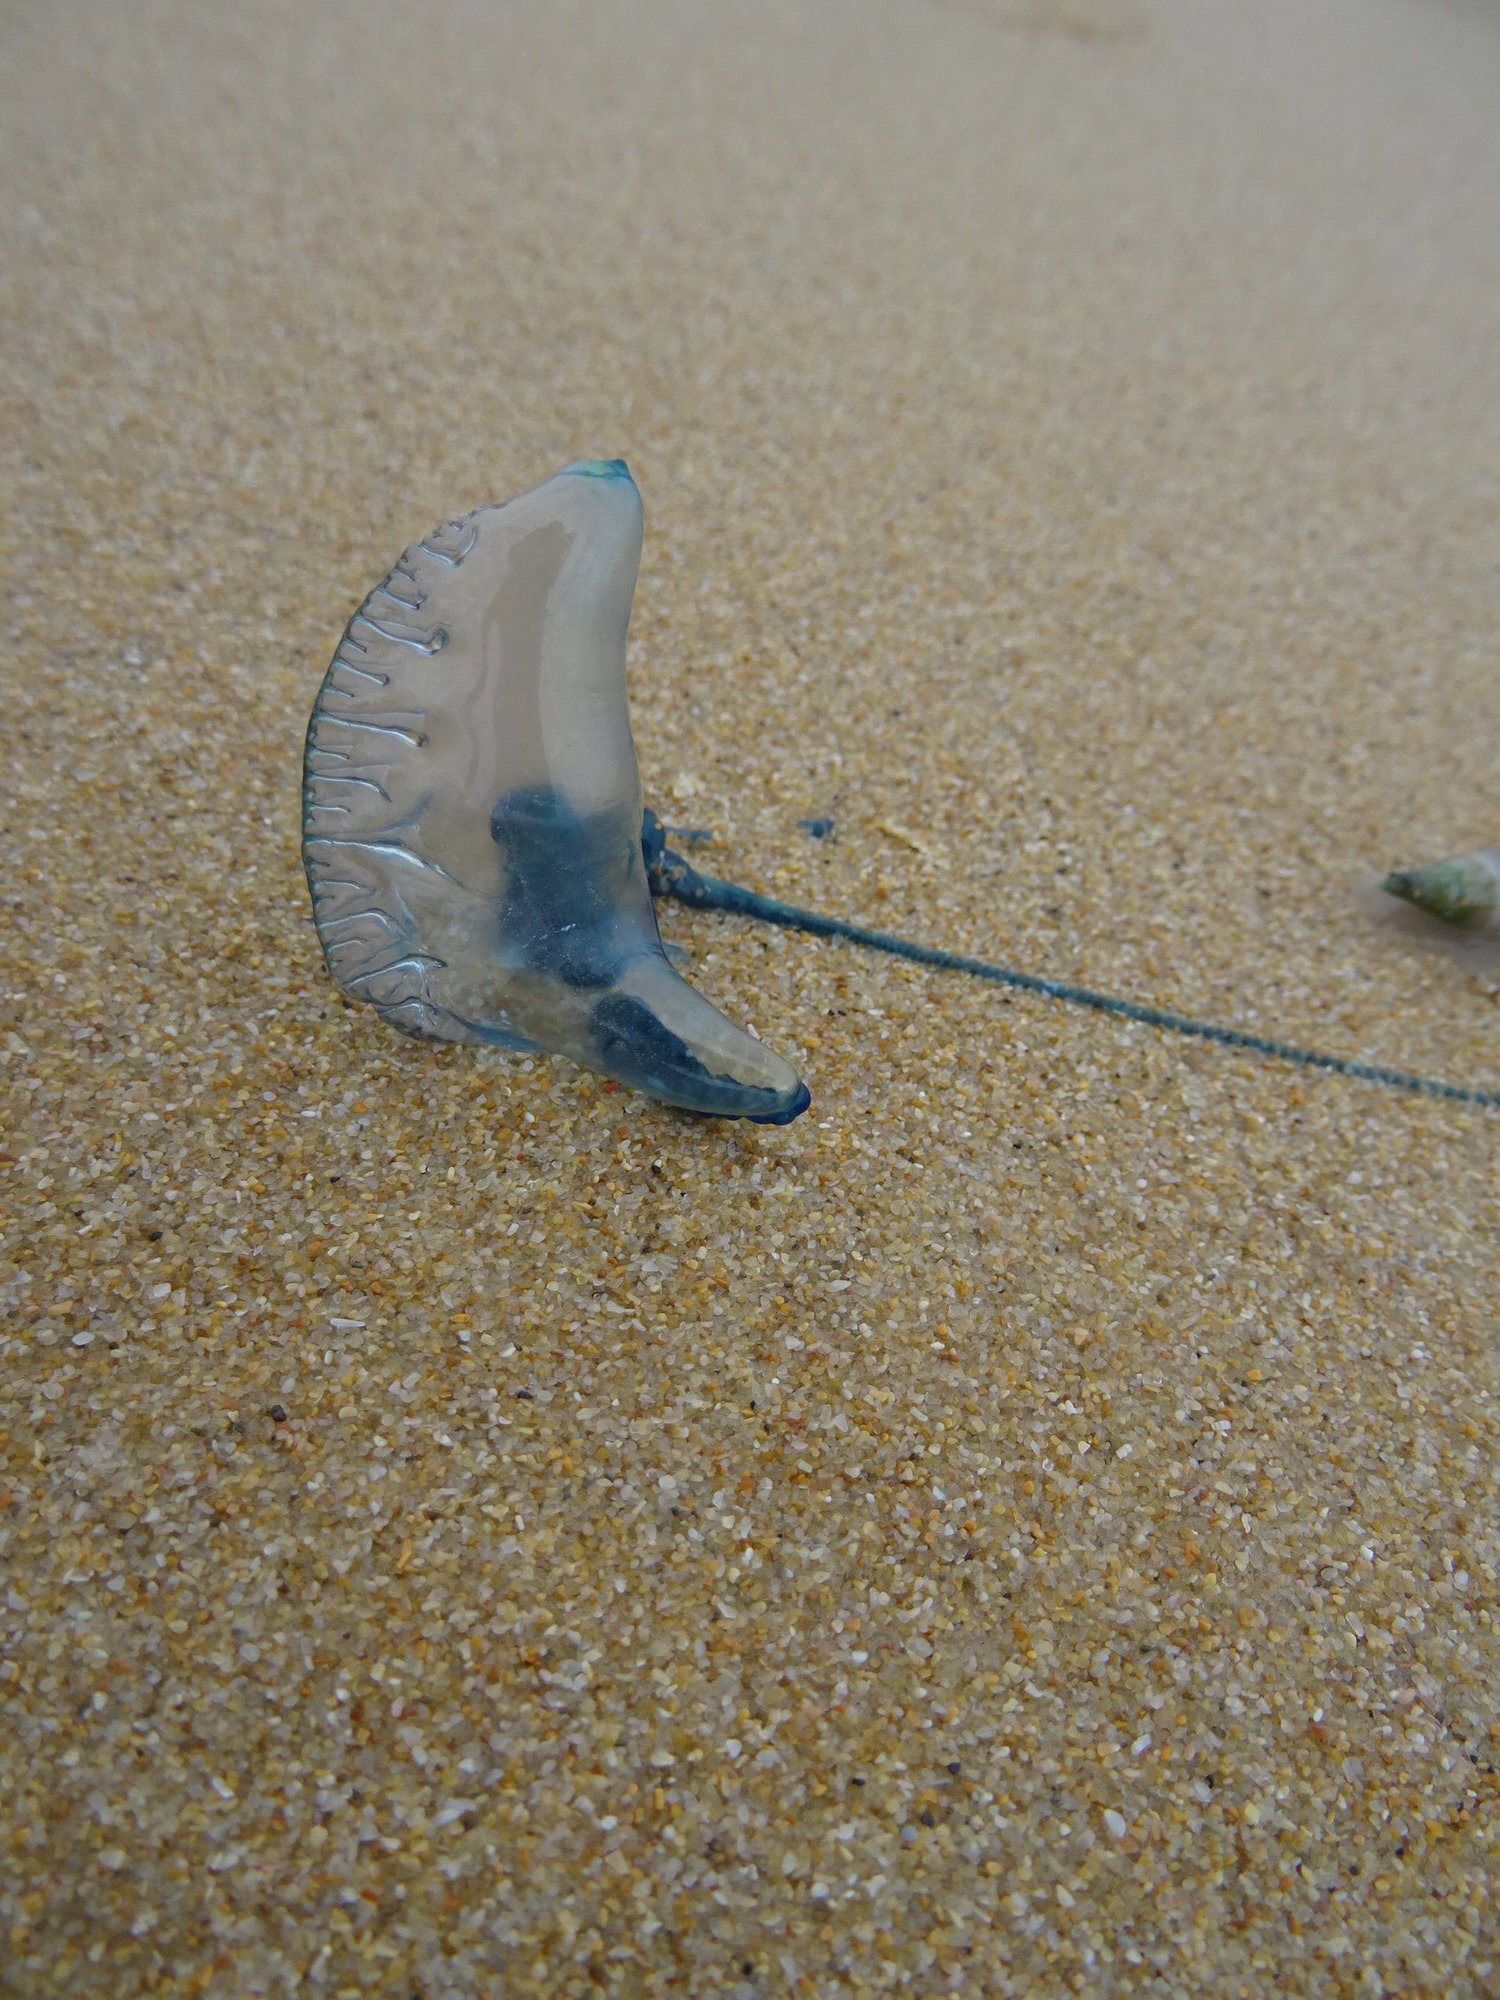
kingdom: Animalia
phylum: Cnidaria
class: Hydrozoa
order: Siphonophorae
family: Physaliidae
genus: Physalia
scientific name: Physalia physalis
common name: Portuguese man-of-war
